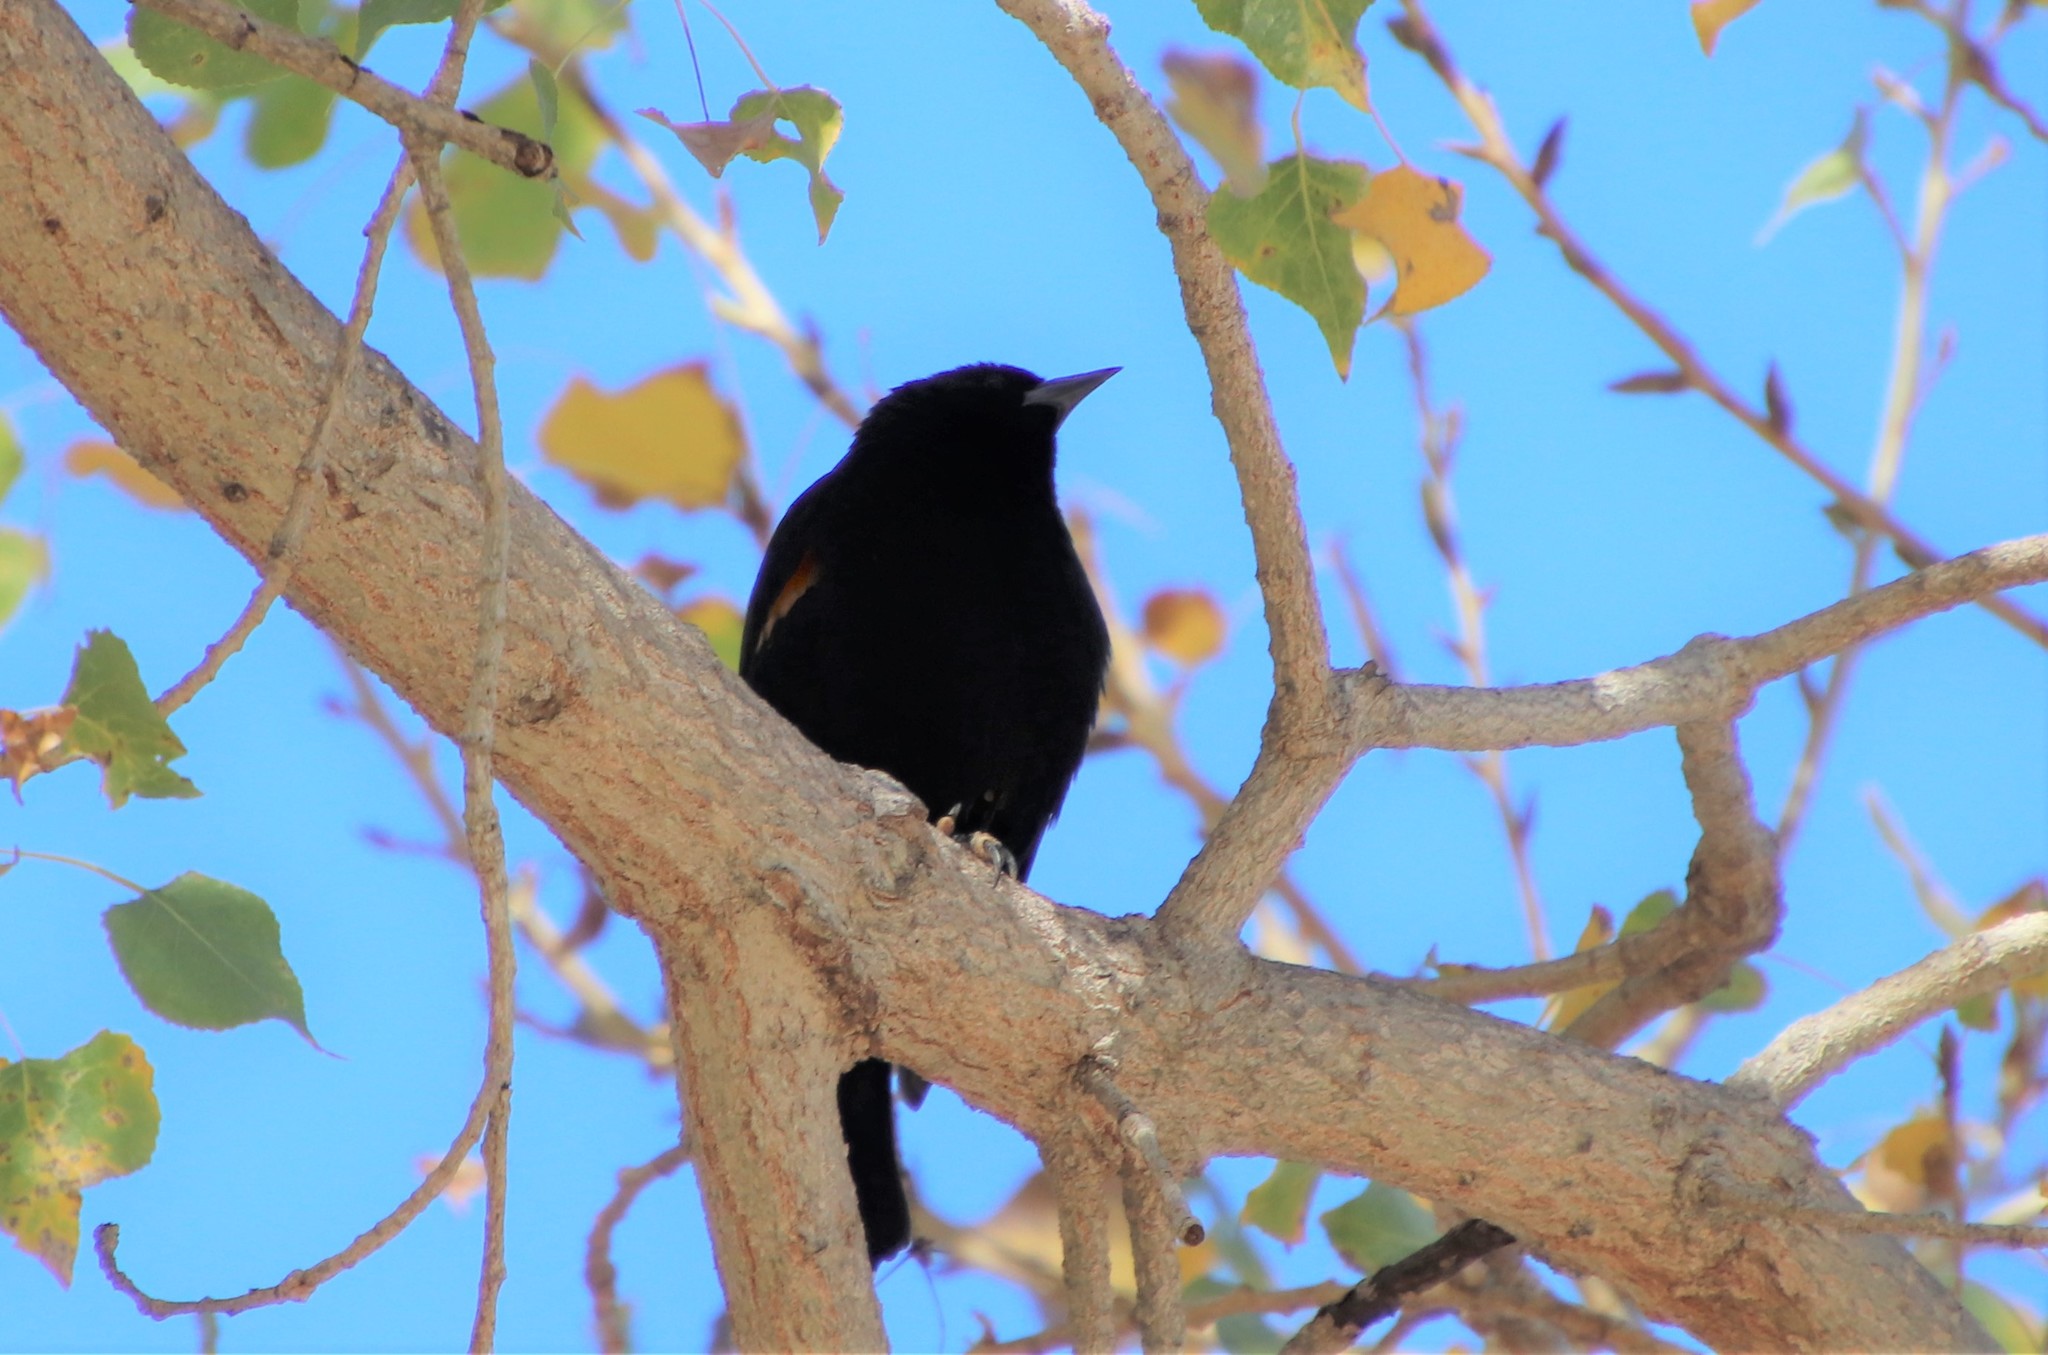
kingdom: Animalia
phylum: Chordata
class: Aves
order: Passeriformes
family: Icteridae
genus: Agelaius
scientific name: Agelaius phoeniceus
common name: Red-winged blackbird
